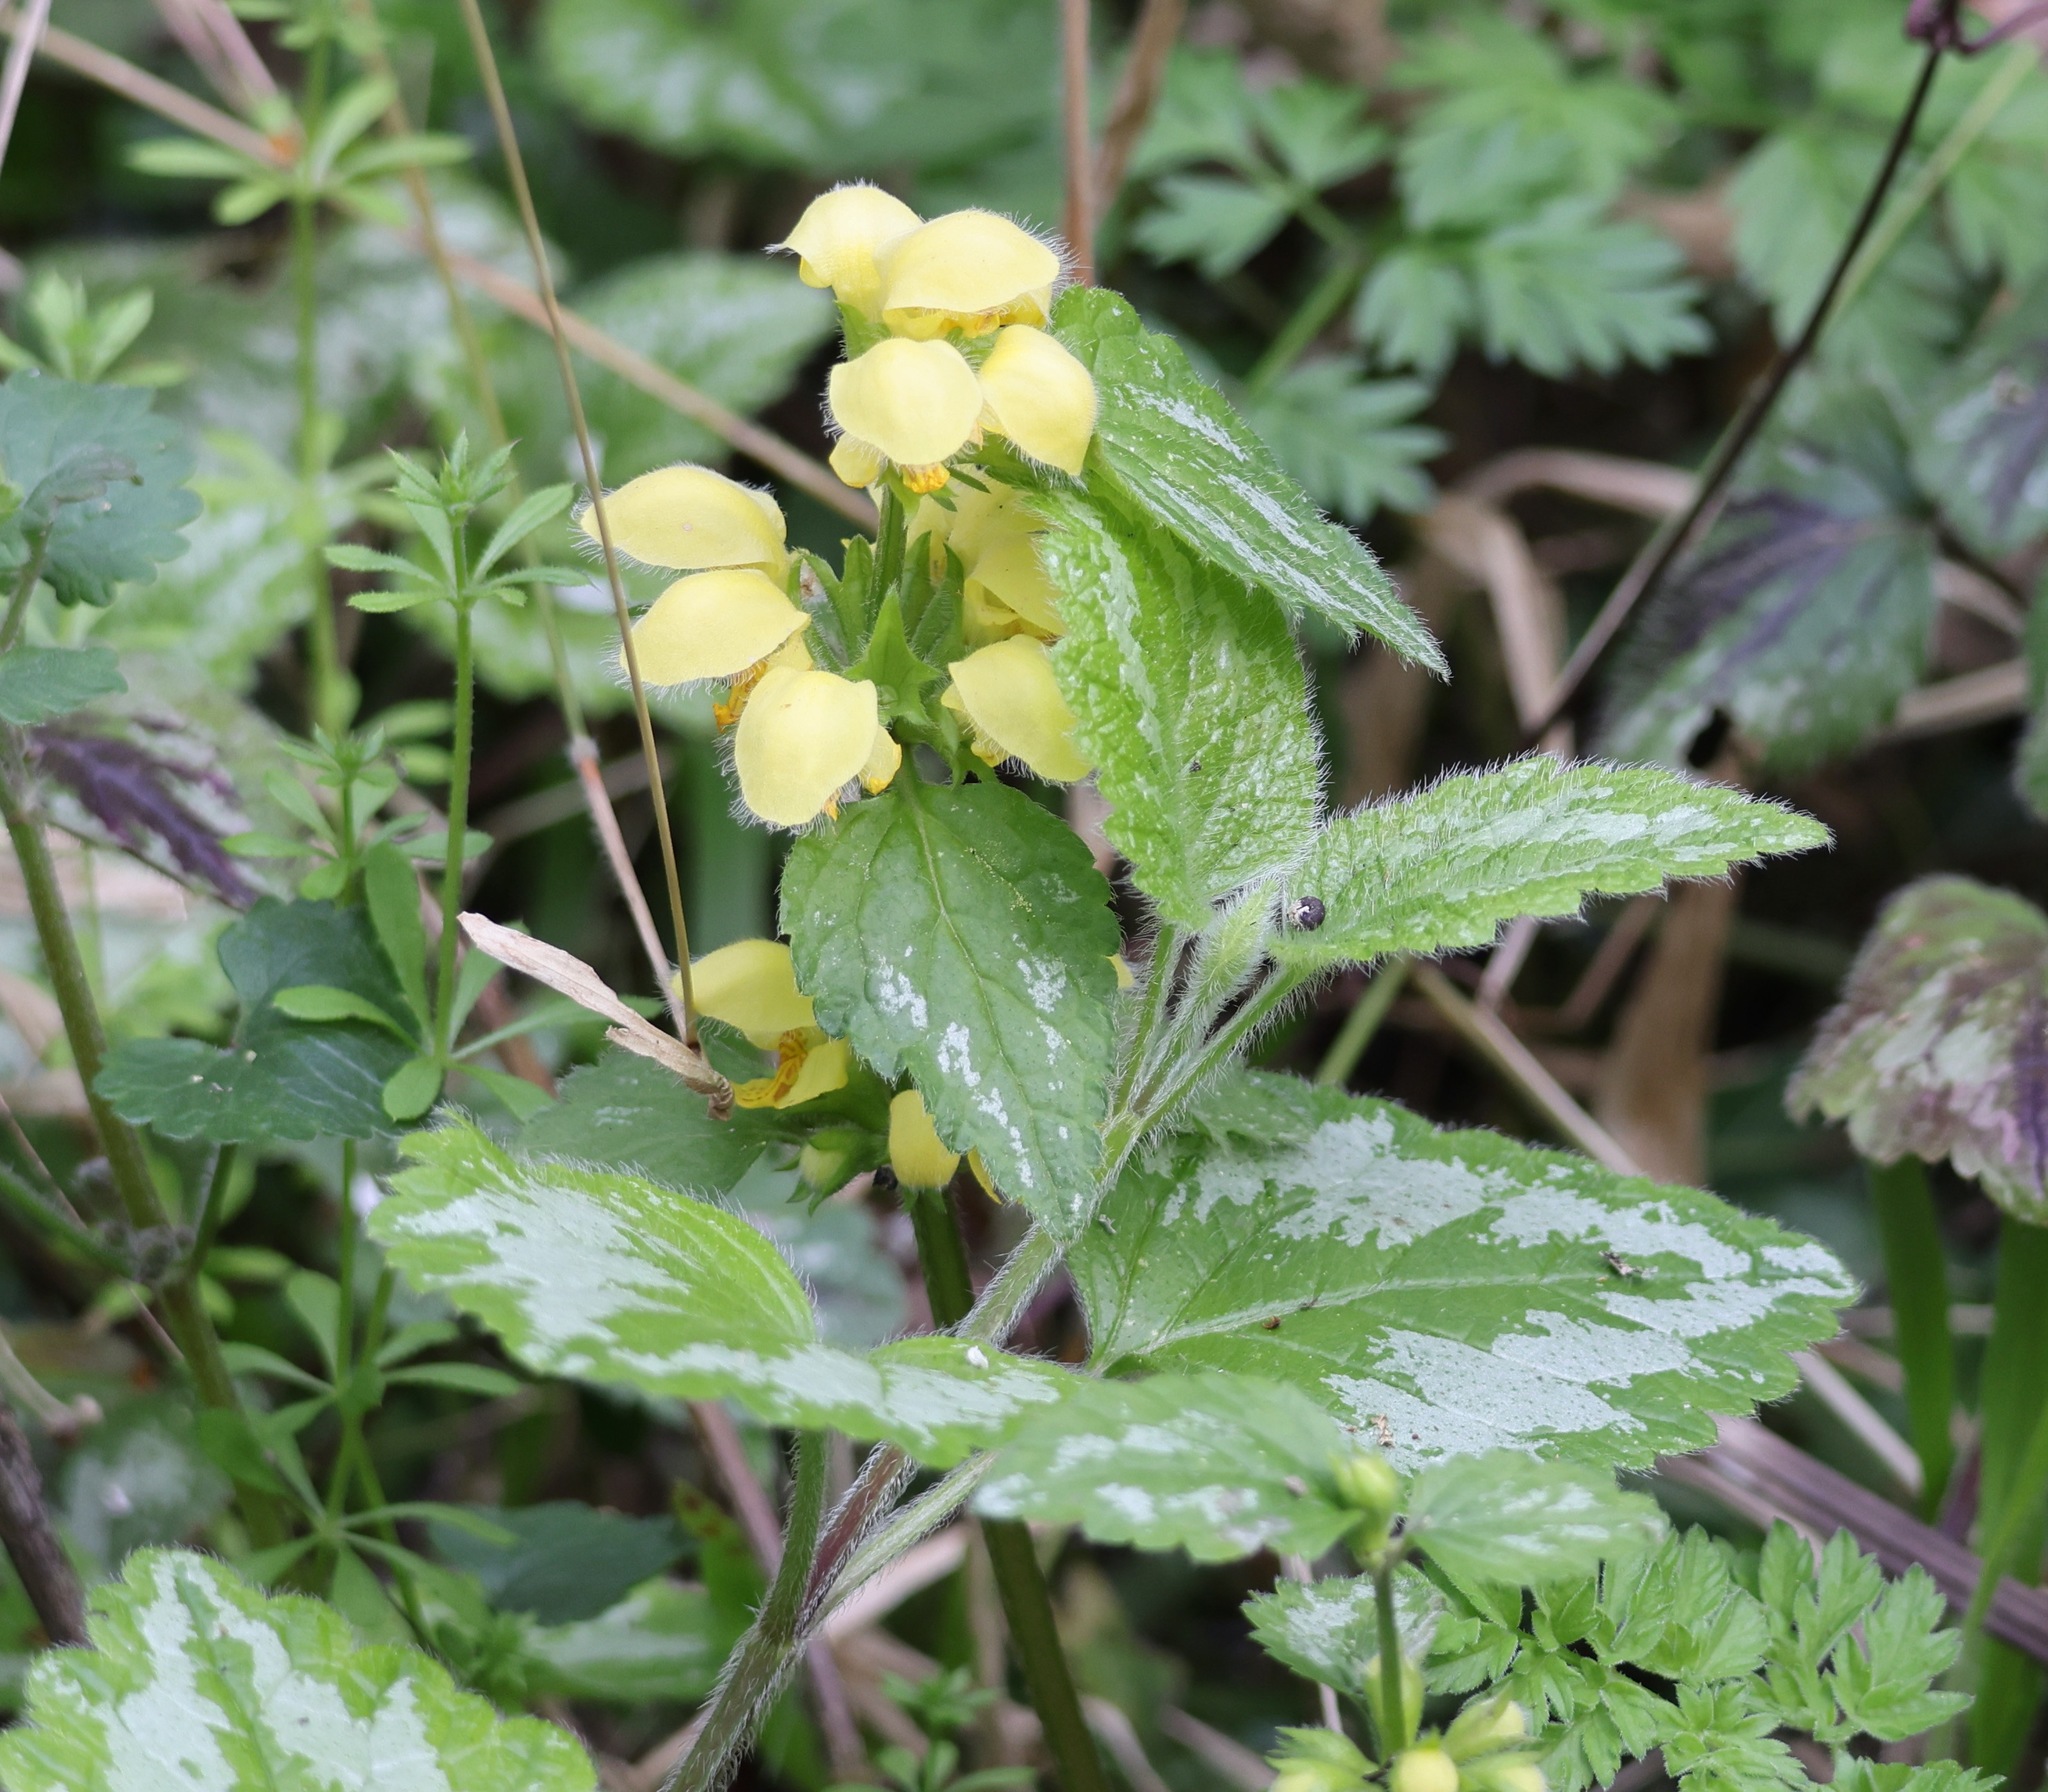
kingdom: Plantae
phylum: Tracheophyta
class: Magnoliopsida
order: Lamiales
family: Lamiaceae
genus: Lamium
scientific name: Lamium galeobdolon
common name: Yellow archangel
